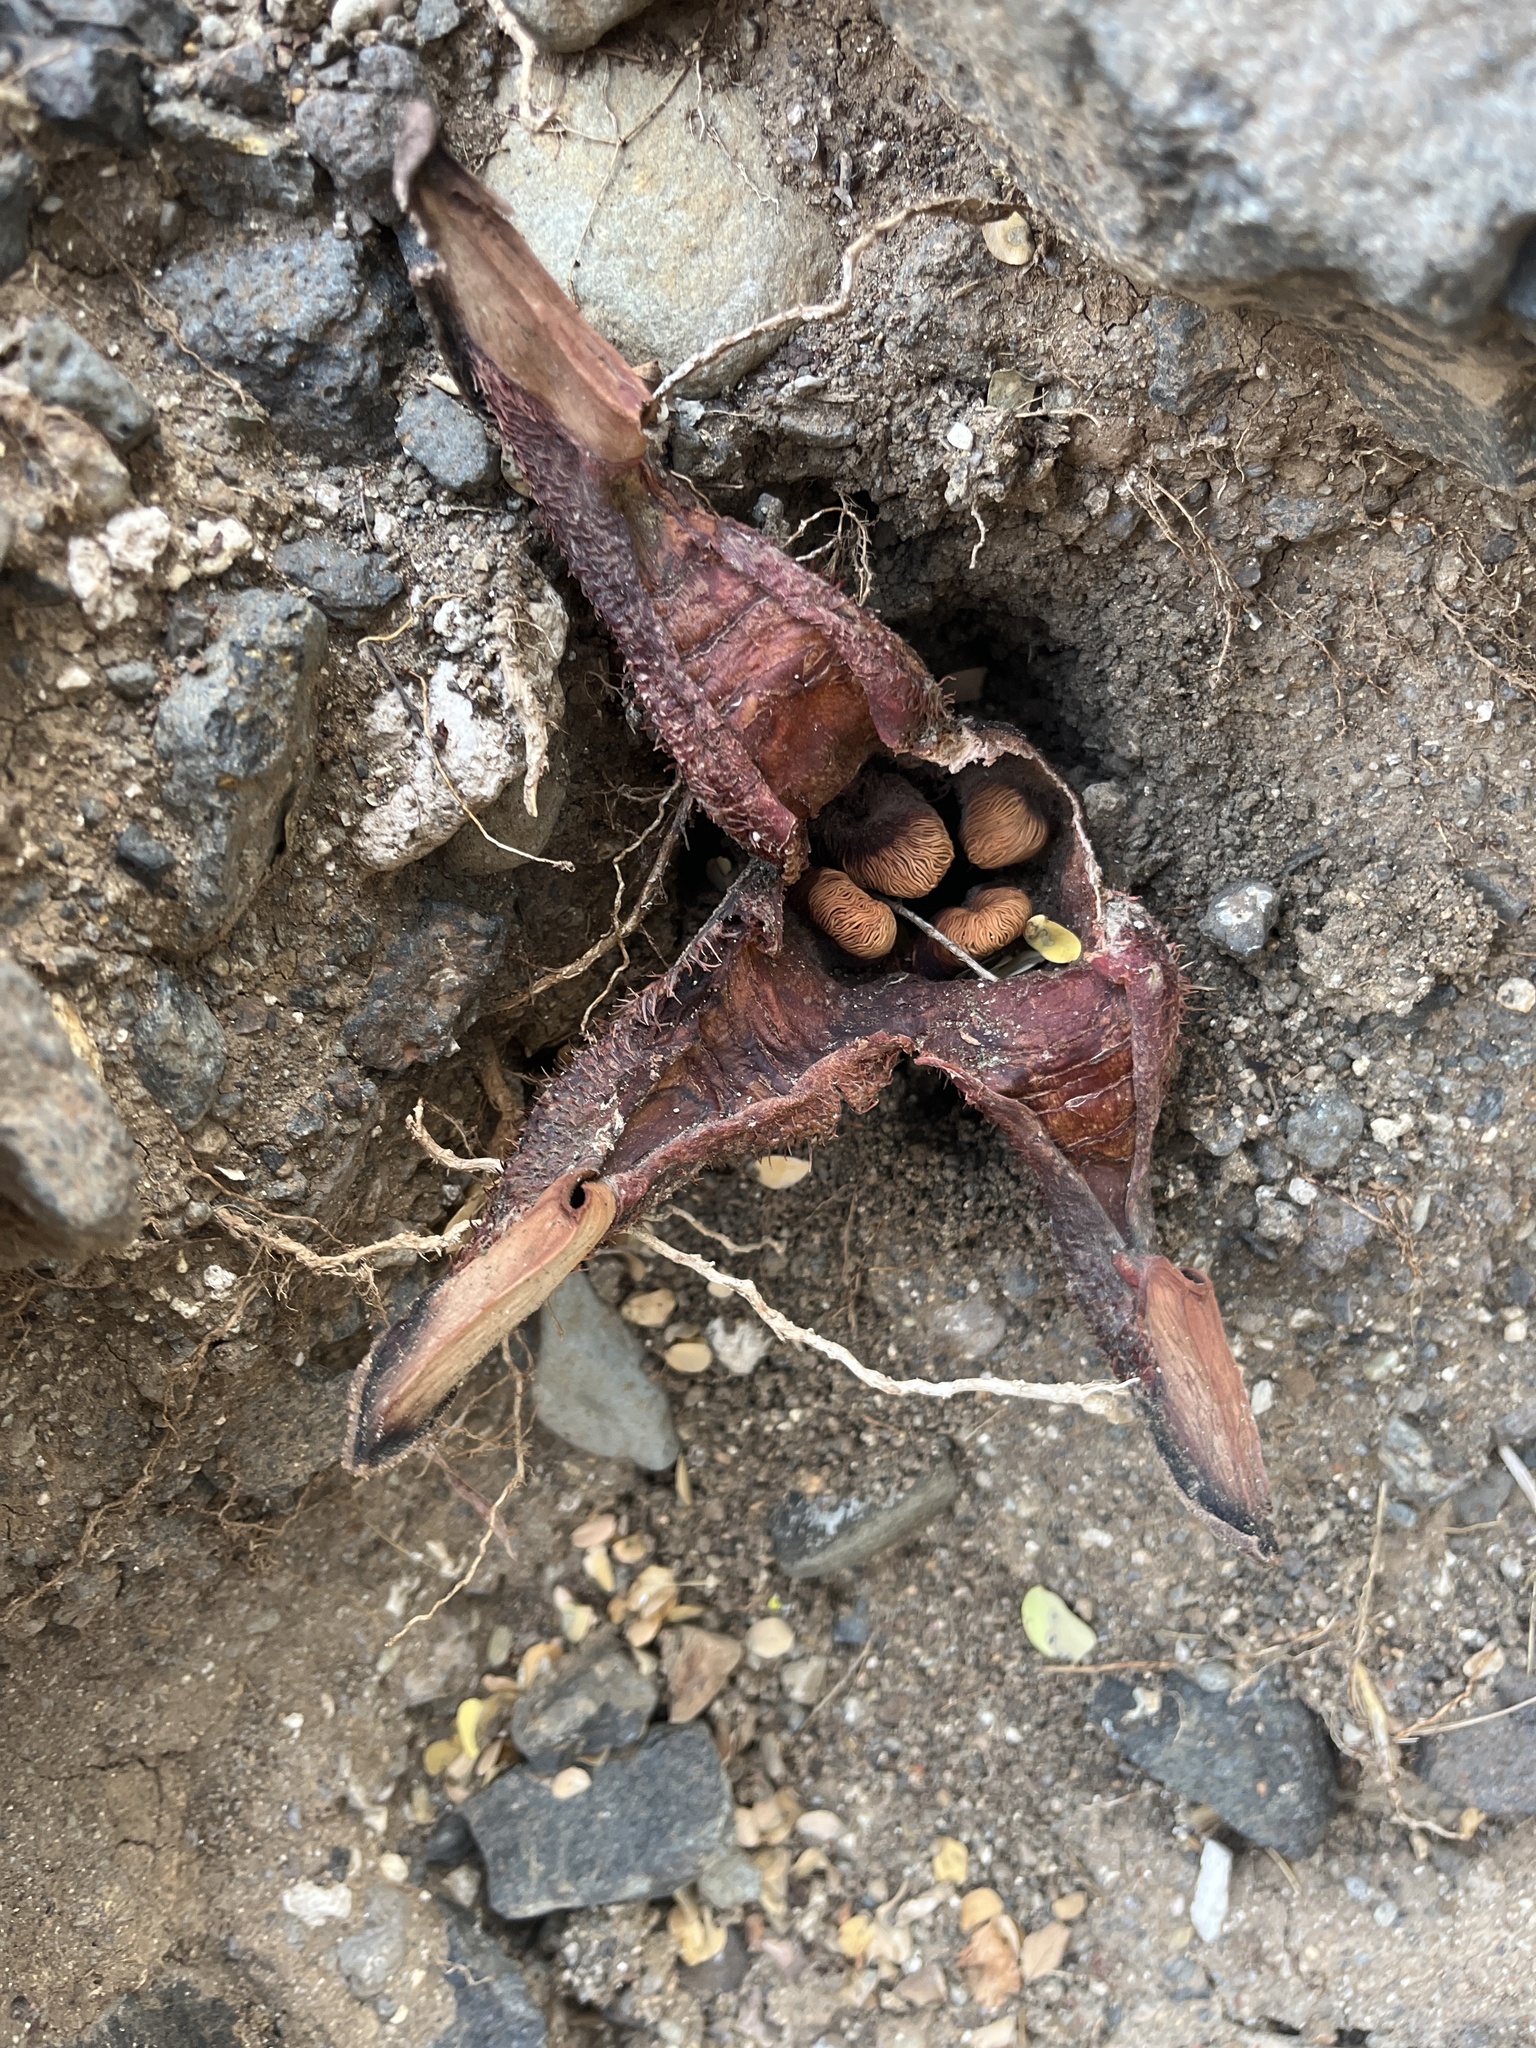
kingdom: Plantae
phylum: Tracheophyta
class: Magnoliopsida
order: Piperales
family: Hydnoraceae
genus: Hydnora
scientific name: Hydnora abyssinica
